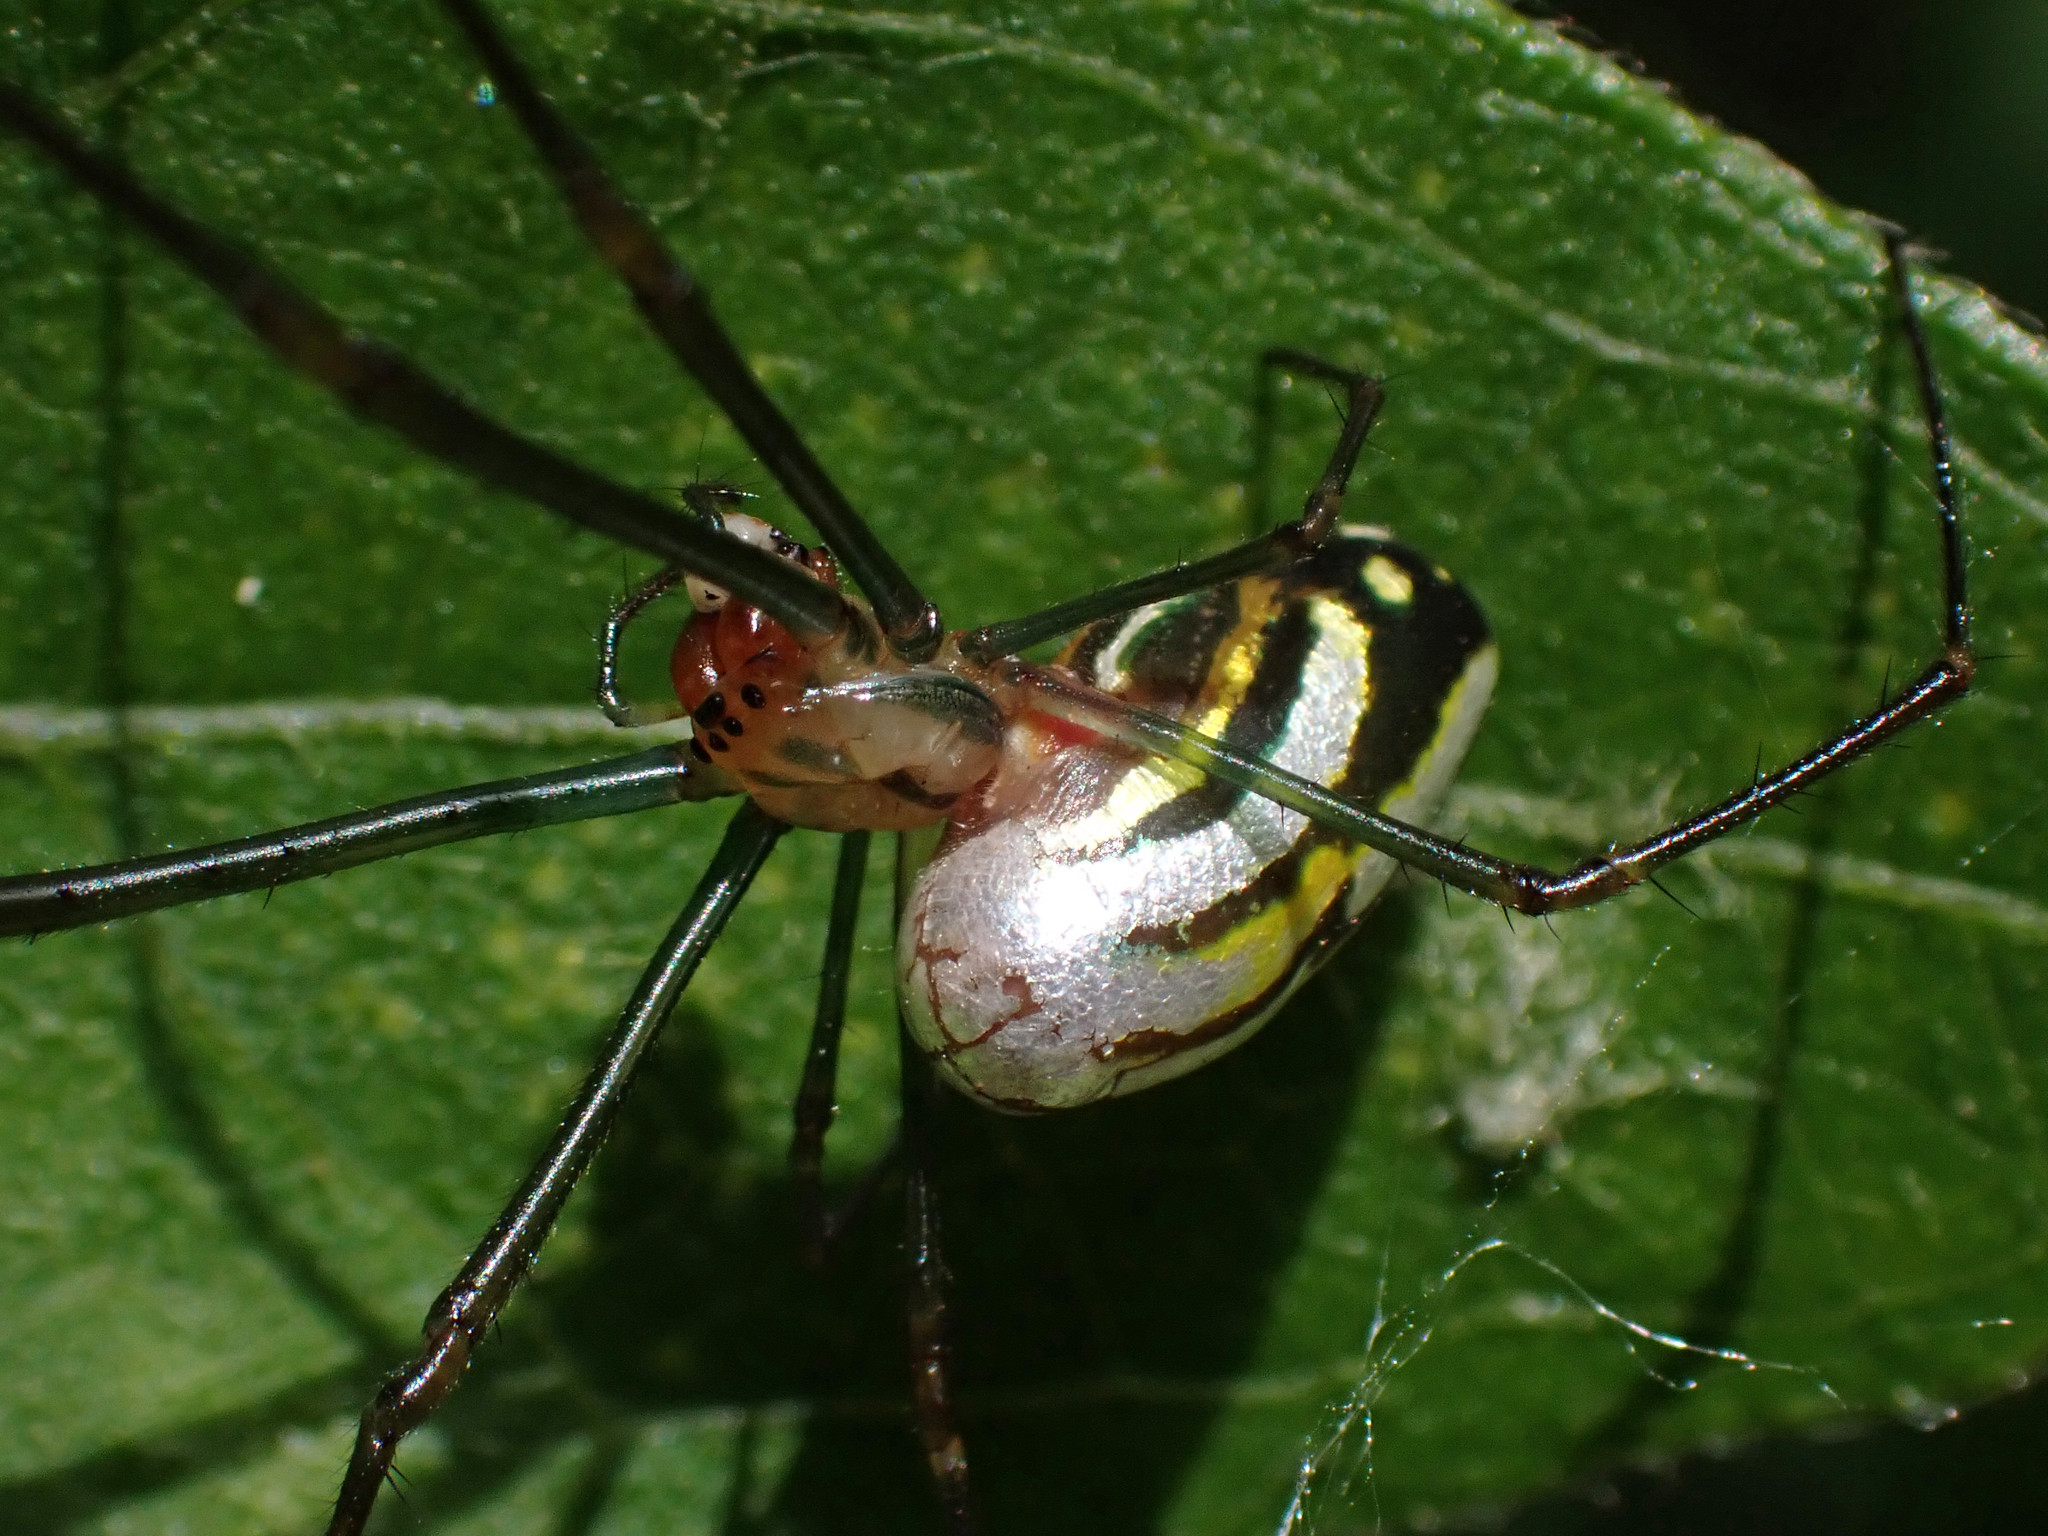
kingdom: Animalia
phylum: Arthropoda
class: Arachnida
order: Araneae
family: Tetragnathidae
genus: Leucauge
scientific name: Leucauge argyra
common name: Longjawed orb weavers
